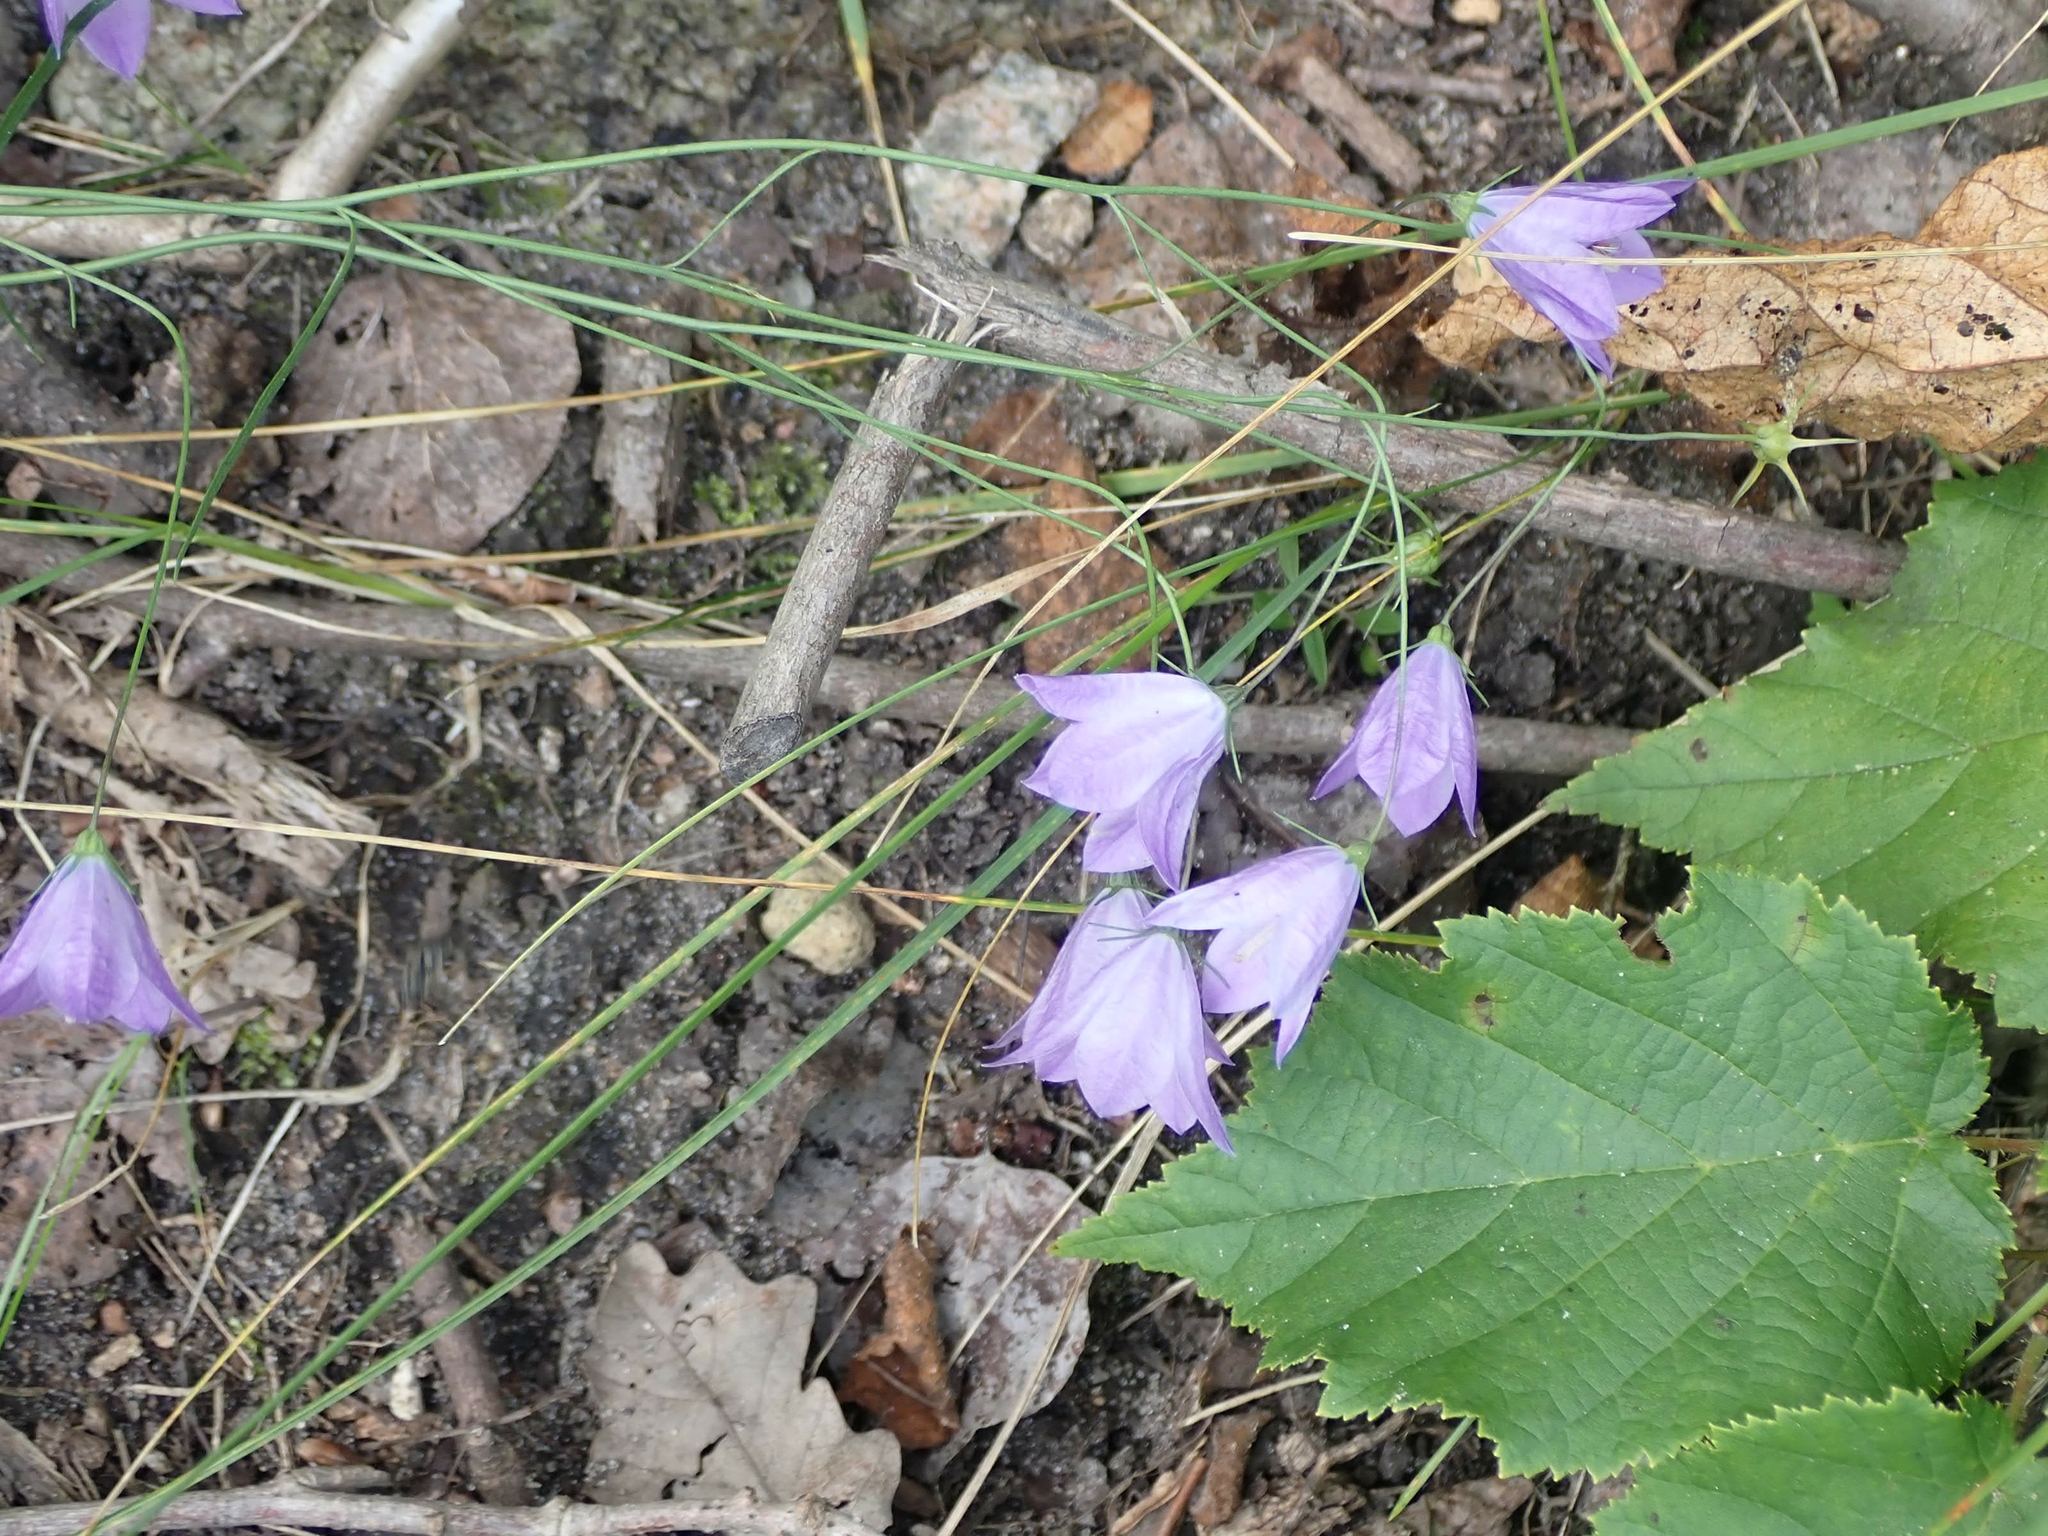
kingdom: Plantae
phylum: Tracheophyta
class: Magnoliopsida
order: Asterales
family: Campanulaceae
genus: Campanula
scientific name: Campanula petiolata
